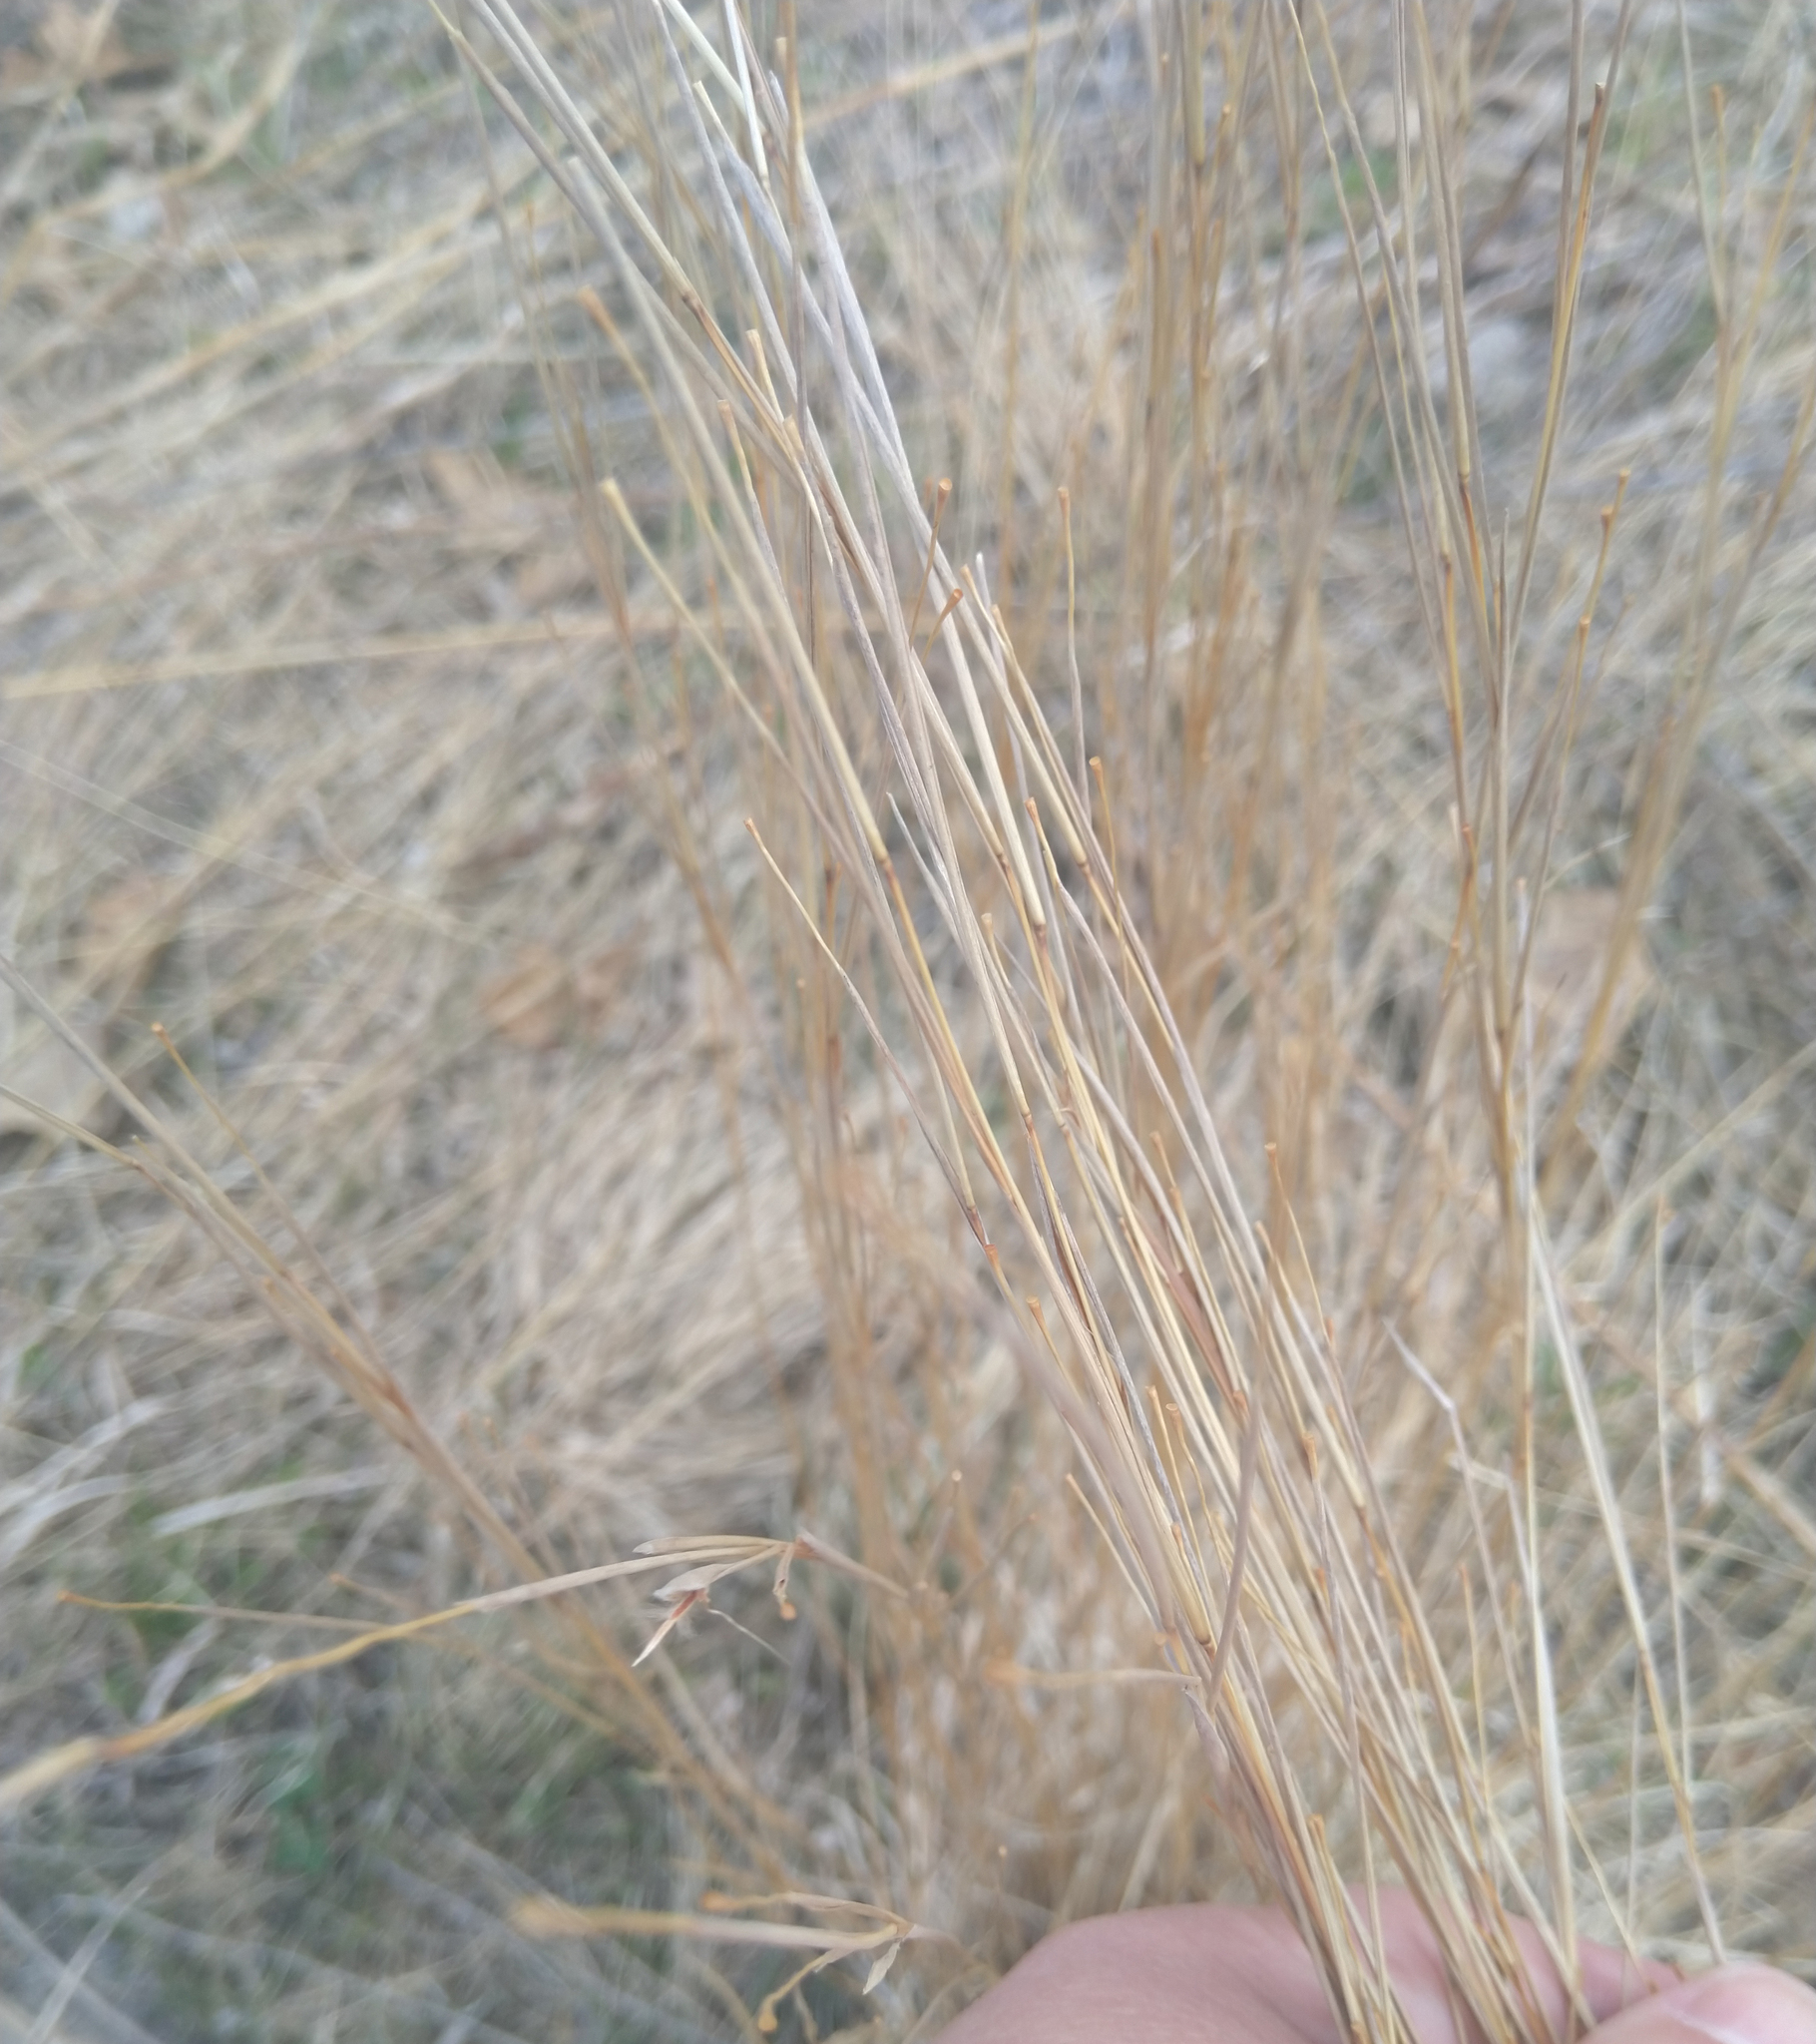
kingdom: Plantae
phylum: Tracheophyta
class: Liliopsida
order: Poales
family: Poaceae
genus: Schizachyrium
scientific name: Schizachyrium scoparium
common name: Little bluestem
